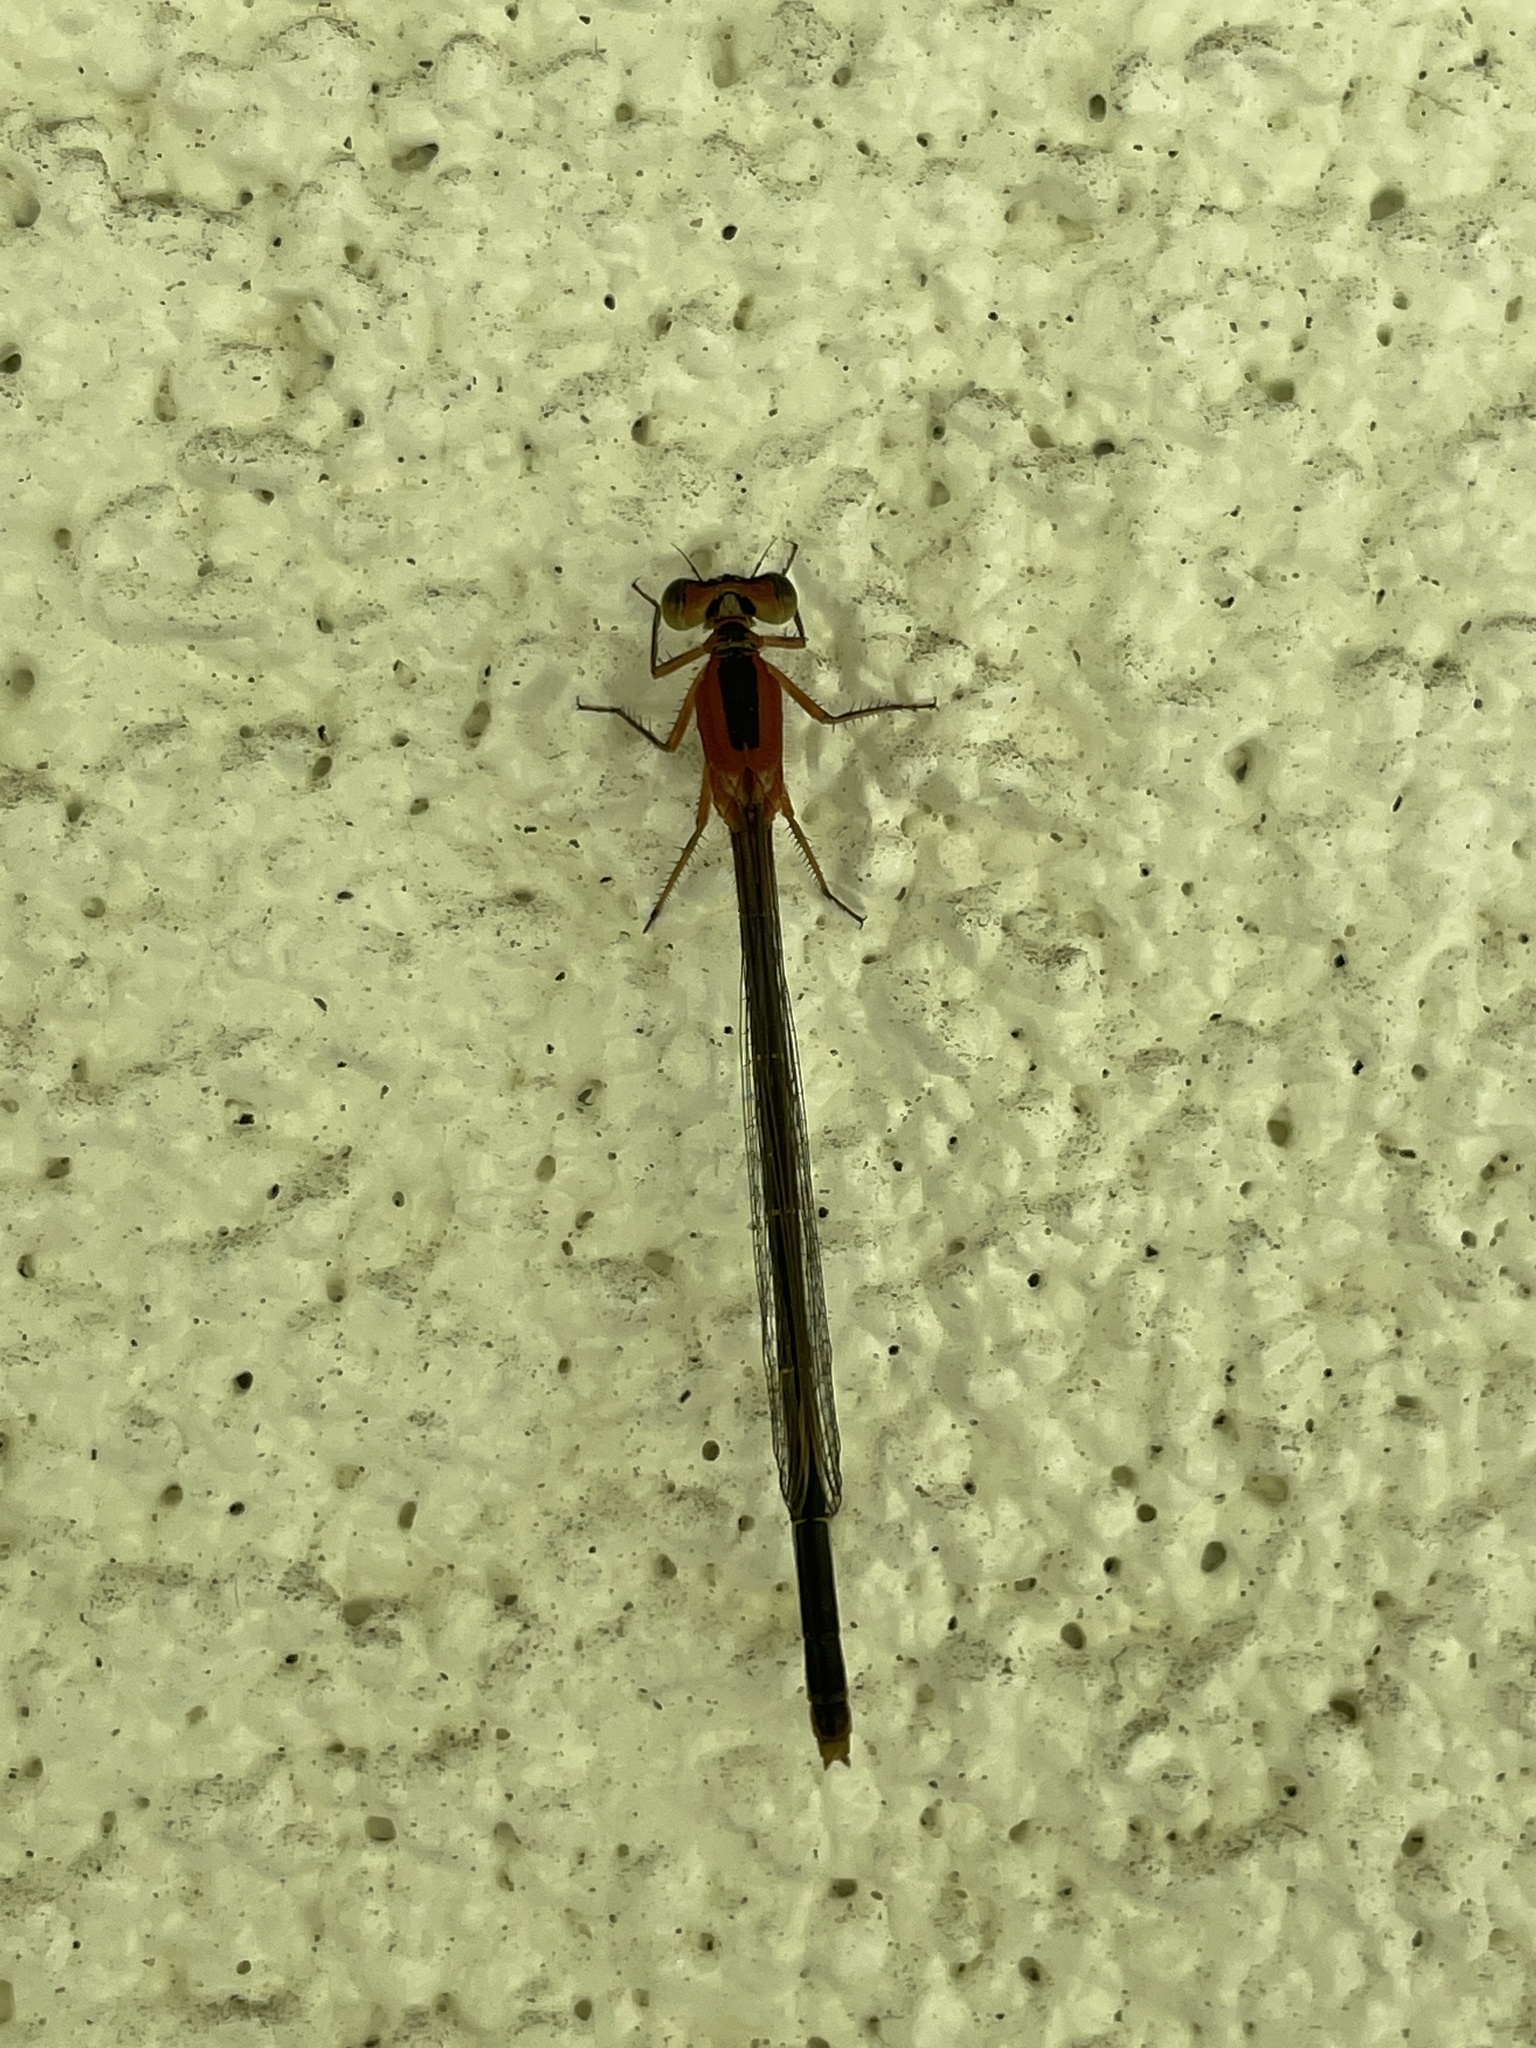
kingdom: Animalia
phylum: Arthropoda
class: Insecta
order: Odonata
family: Coenagrionidae
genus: Ischnura
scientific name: Ischnura ramburii
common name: Rambur's forktail
